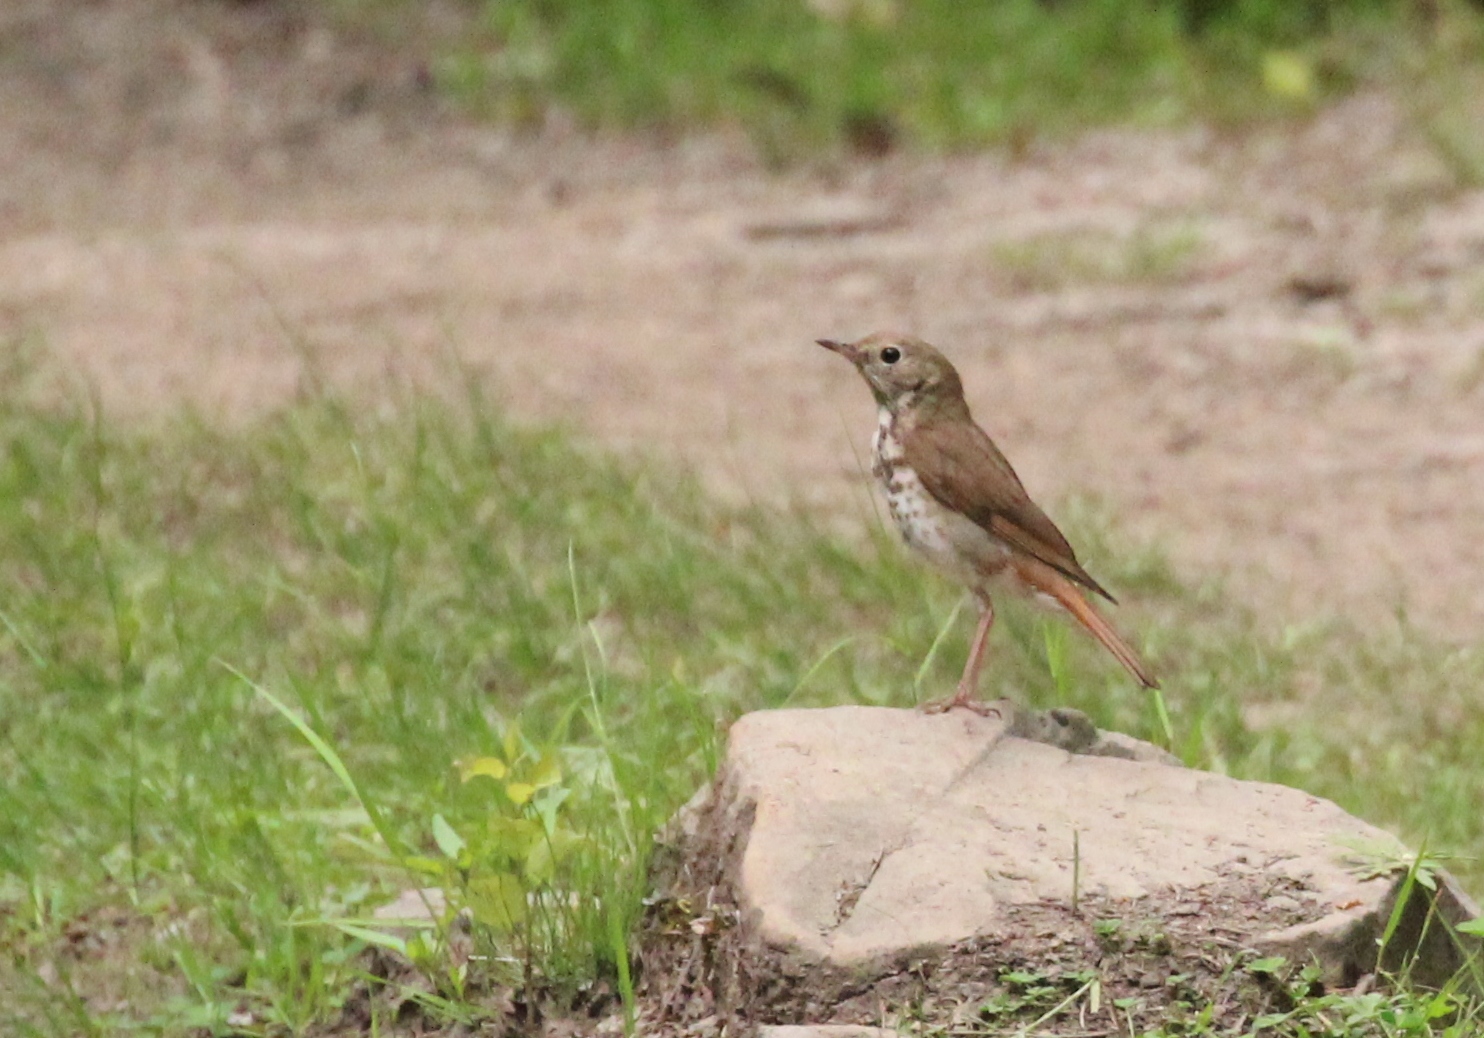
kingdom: Animalia
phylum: Chordata
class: Aves
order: Passeriformes
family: Turdidae
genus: Catharus
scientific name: Catharus guttatus
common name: Hermit thrush
